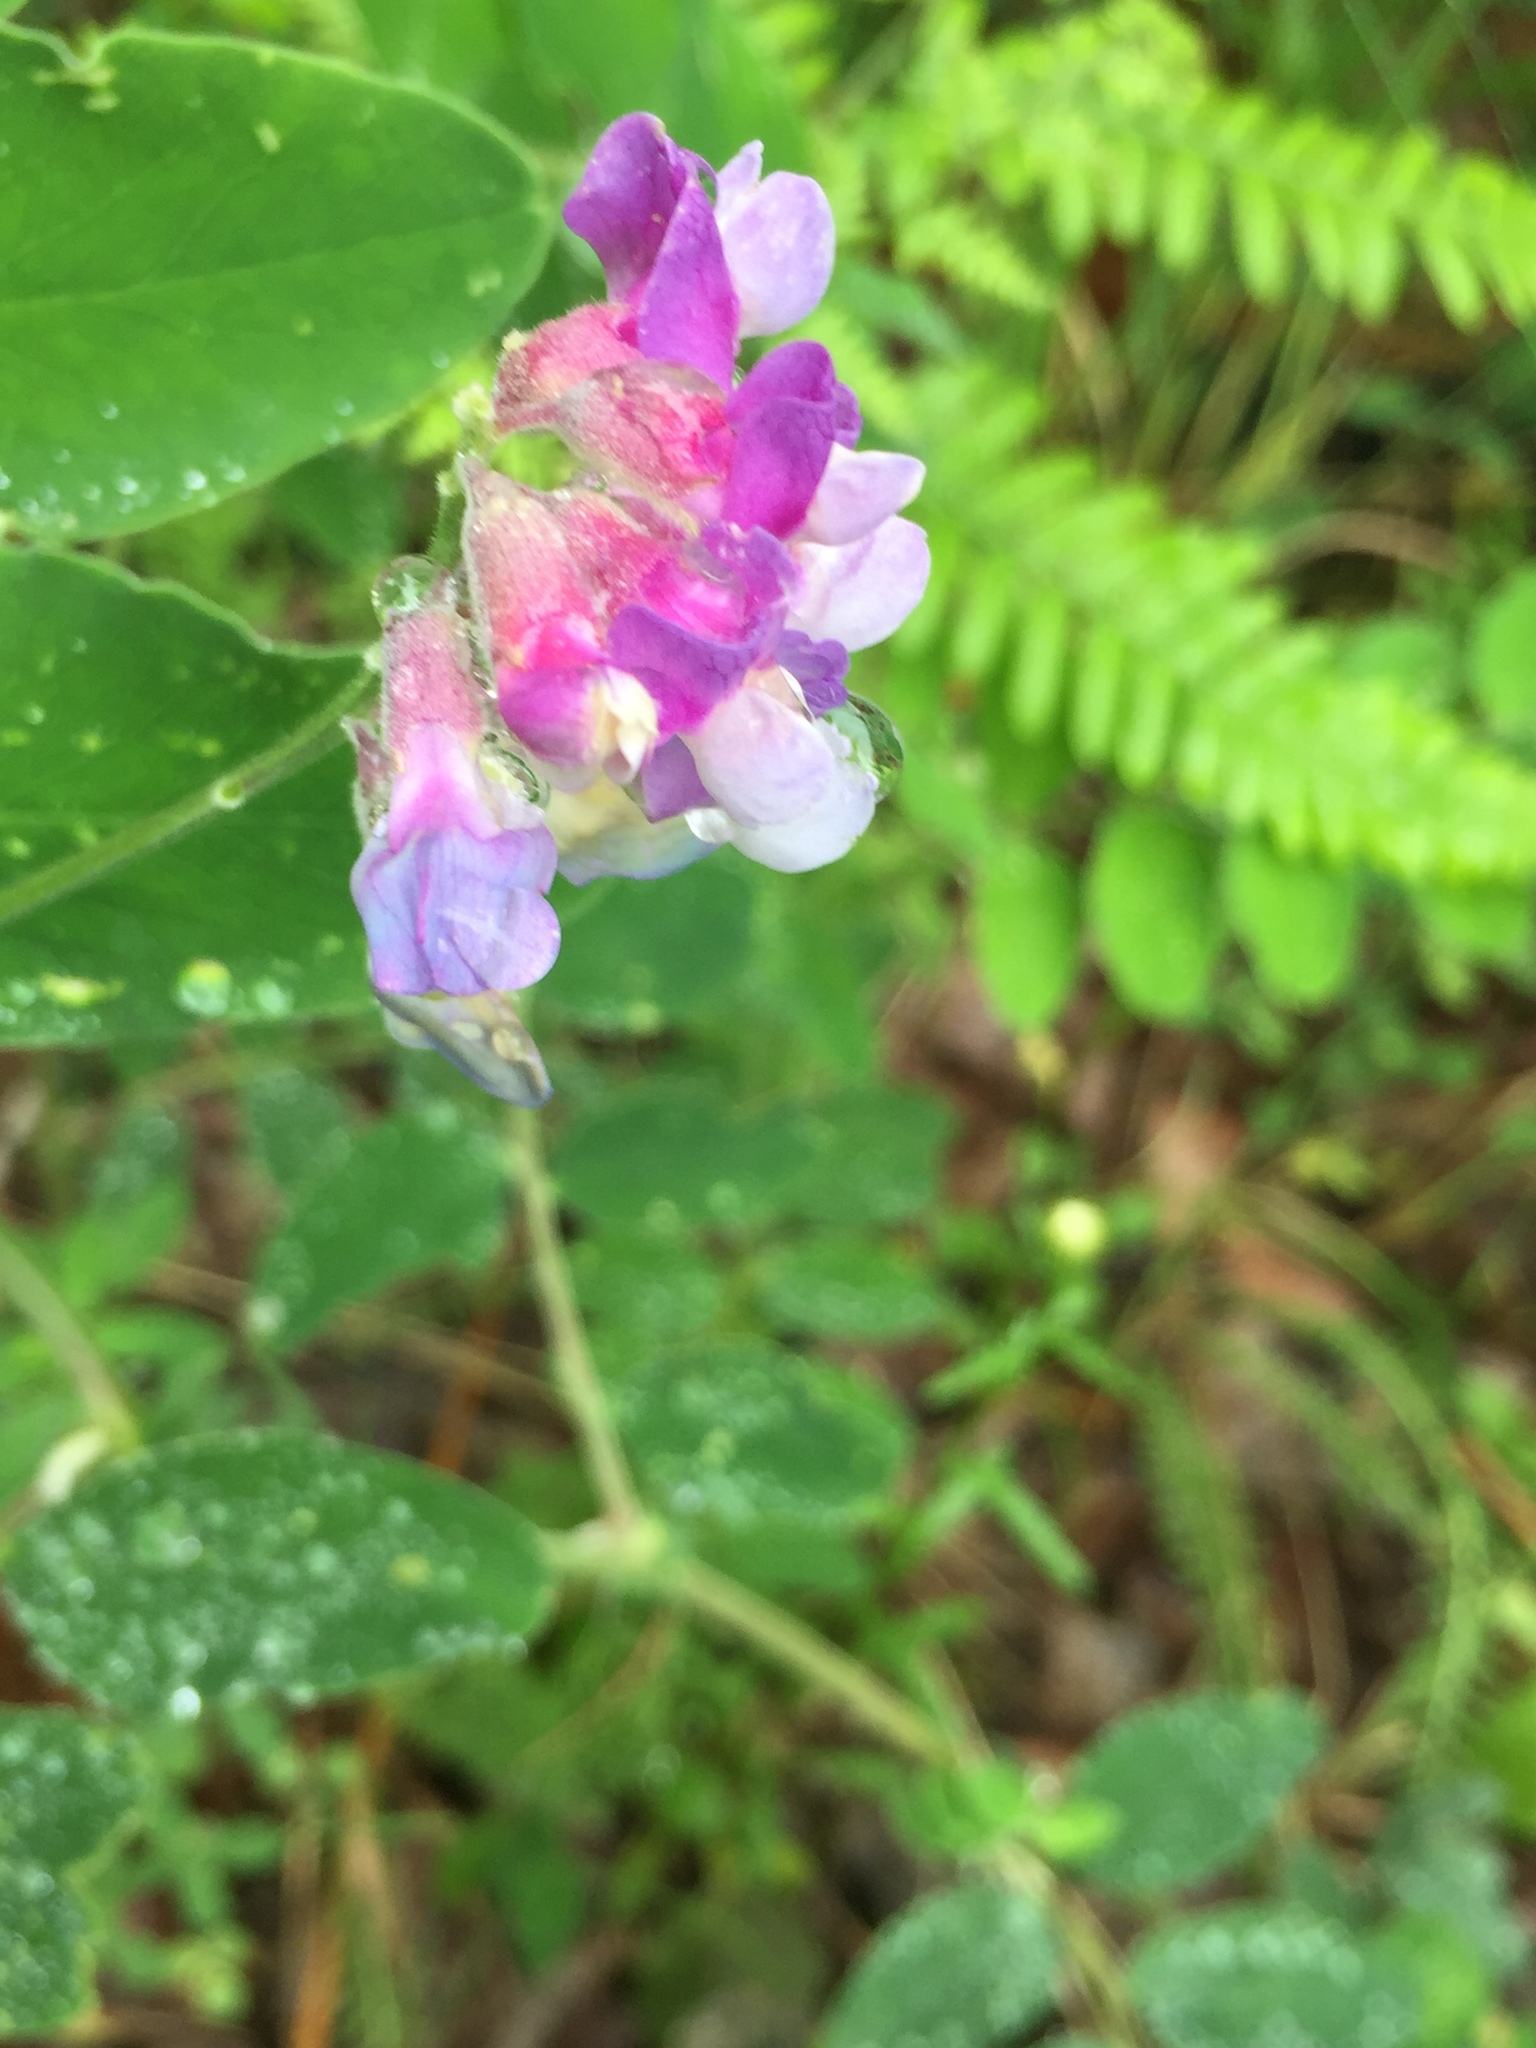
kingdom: Plantae
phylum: Tracheophyta
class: Magnoliopsida
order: Fabales
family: Fabaceae
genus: Lathyrus
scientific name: Lathyrus venosus
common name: Forest-pea
